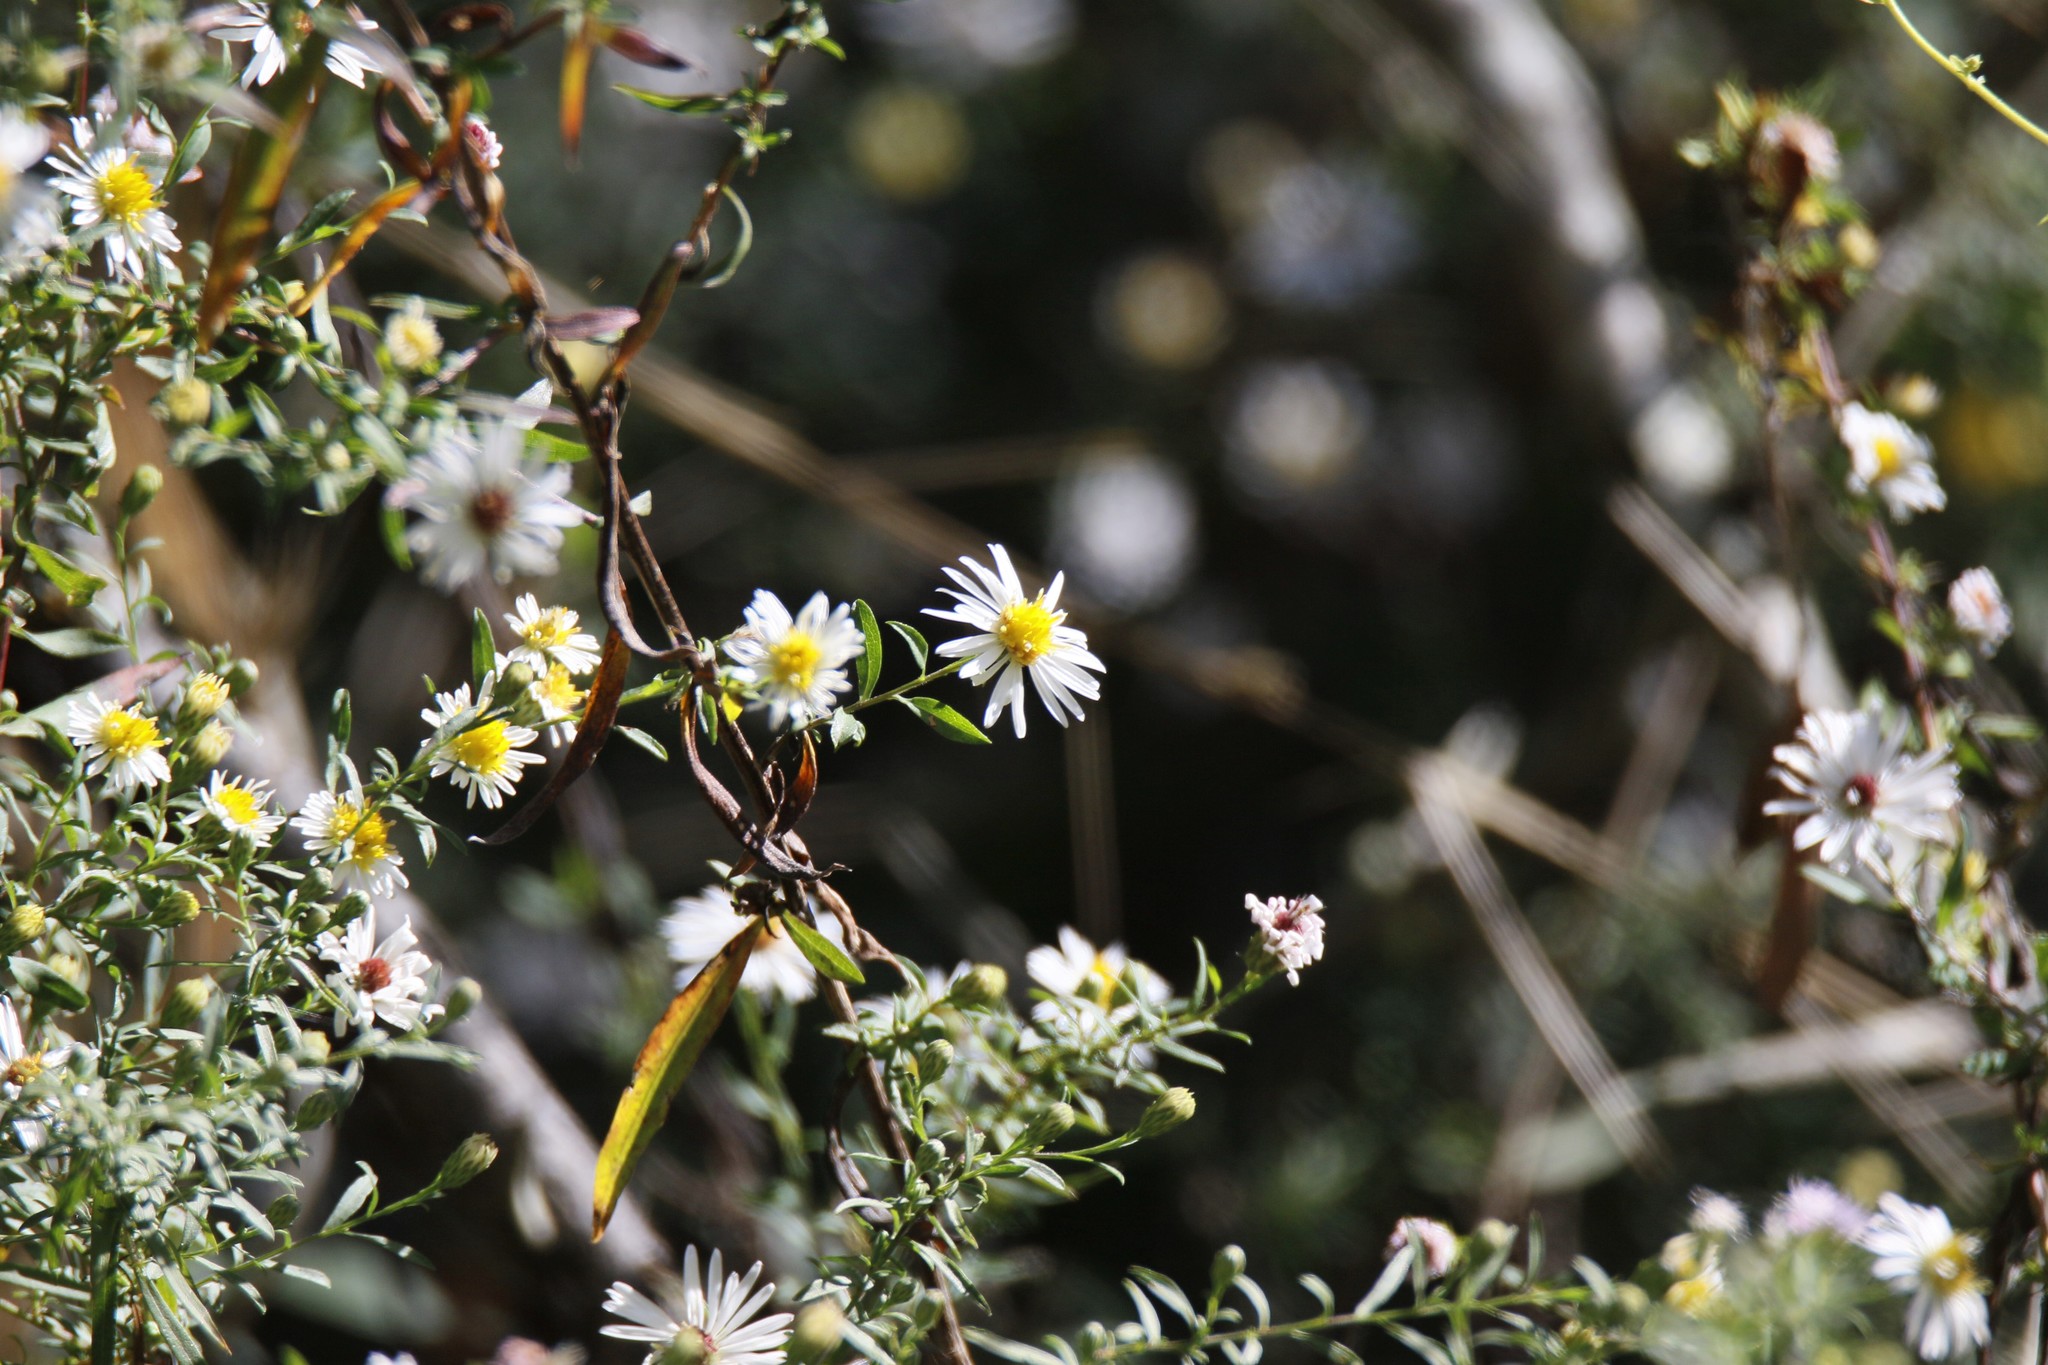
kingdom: Plantae
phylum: Tracheophyta
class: Magnoliopsida
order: Asterales
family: Asteraceae
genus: Symphyotrichum
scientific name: Symphyotrichum ericoides
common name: Heath aster
